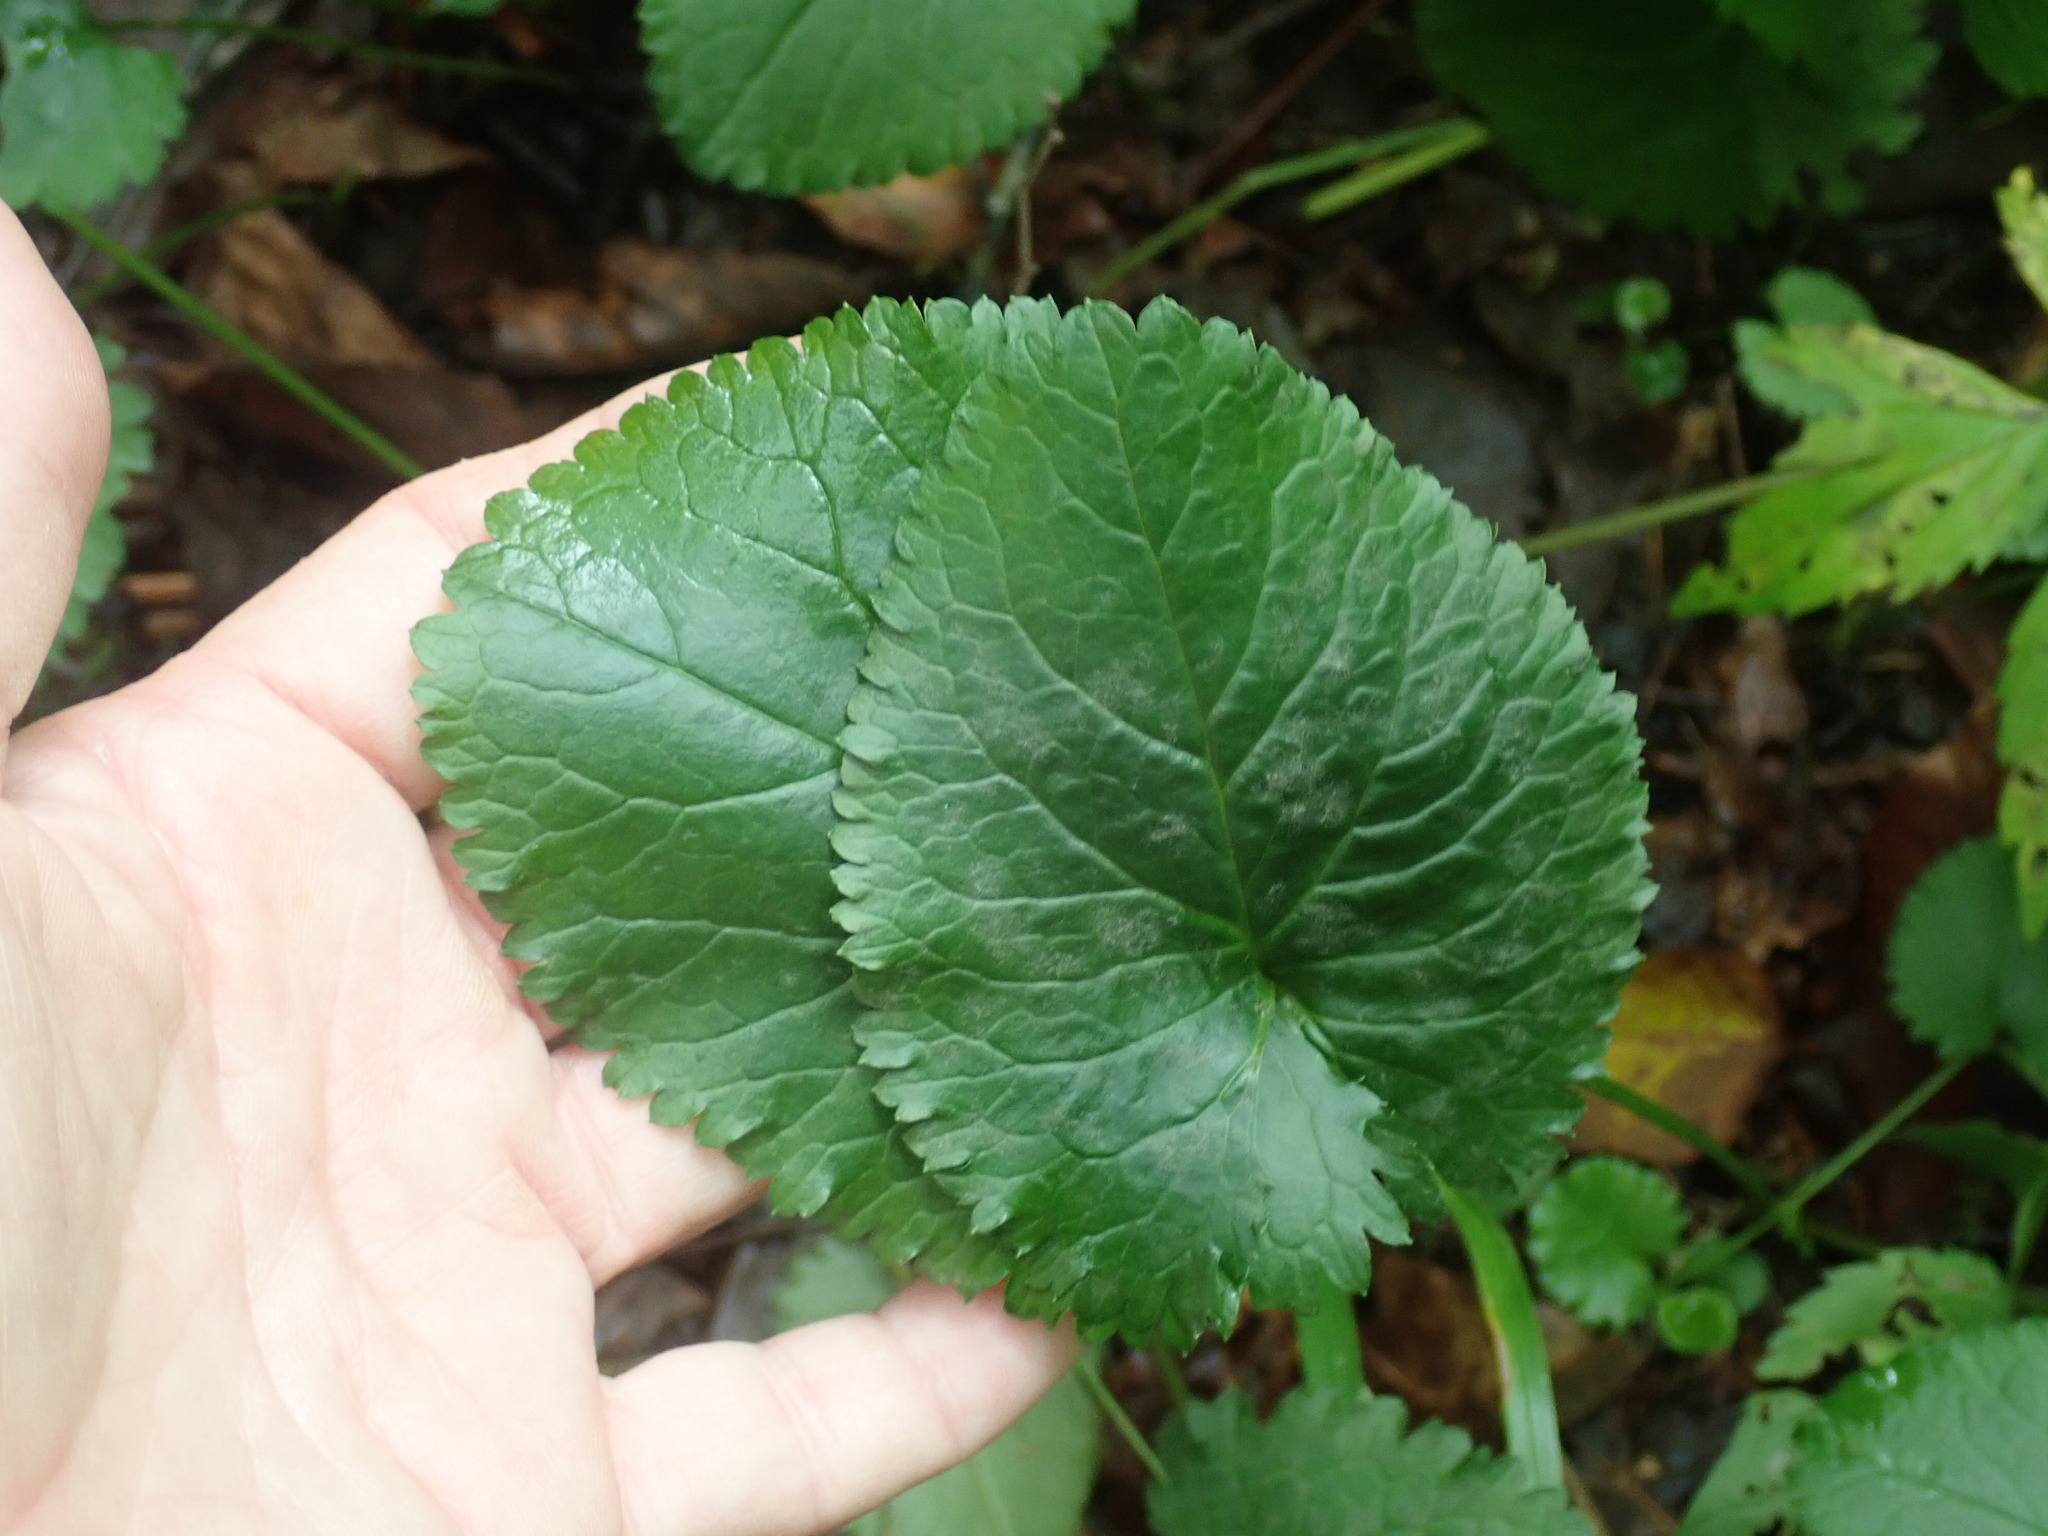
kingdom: Plantae
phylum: Tracheophyta
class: Magnoliopsida
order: Asterales
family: Asteraceae
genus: Packera
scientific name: Packera aurea
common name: Golden groundsel
